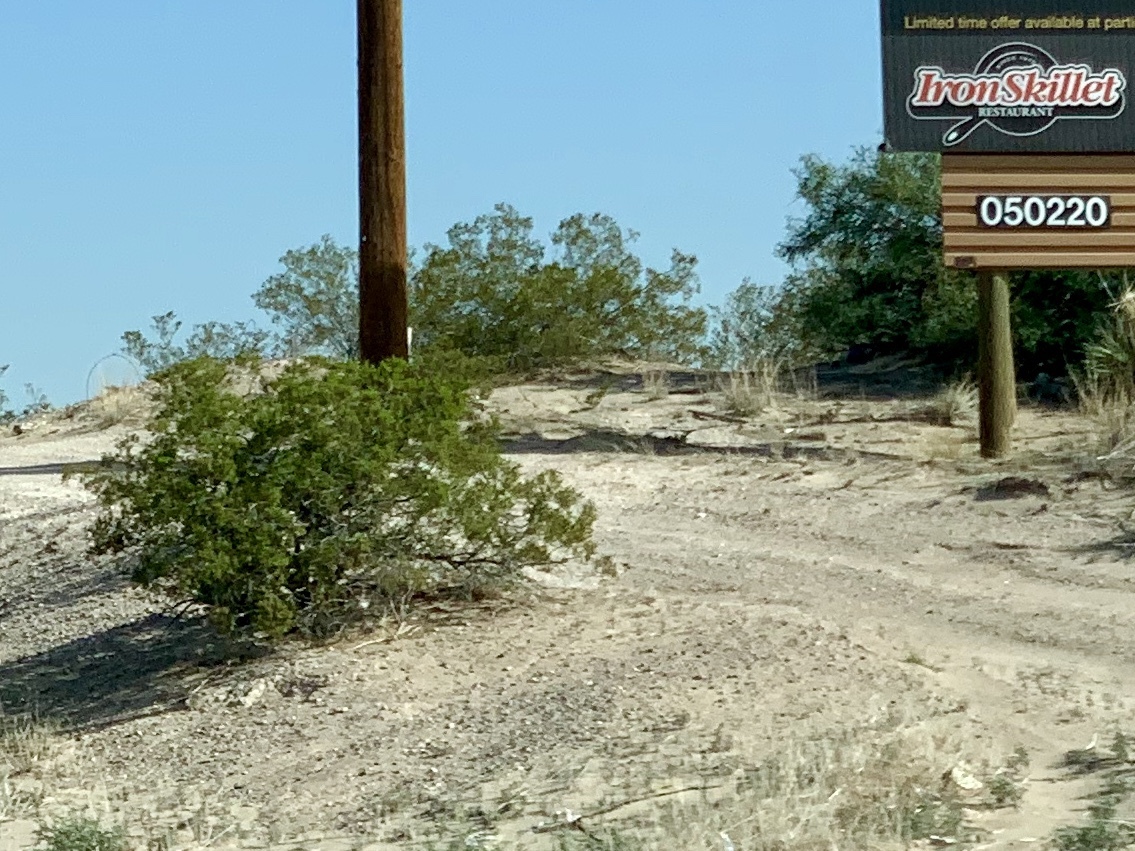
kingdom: Plantae
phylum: Tracheophyta
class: Magnoliopsida
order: Zygophyllales
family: Zygophyllaceae
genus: Larrea
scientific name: Larrea tridentata
